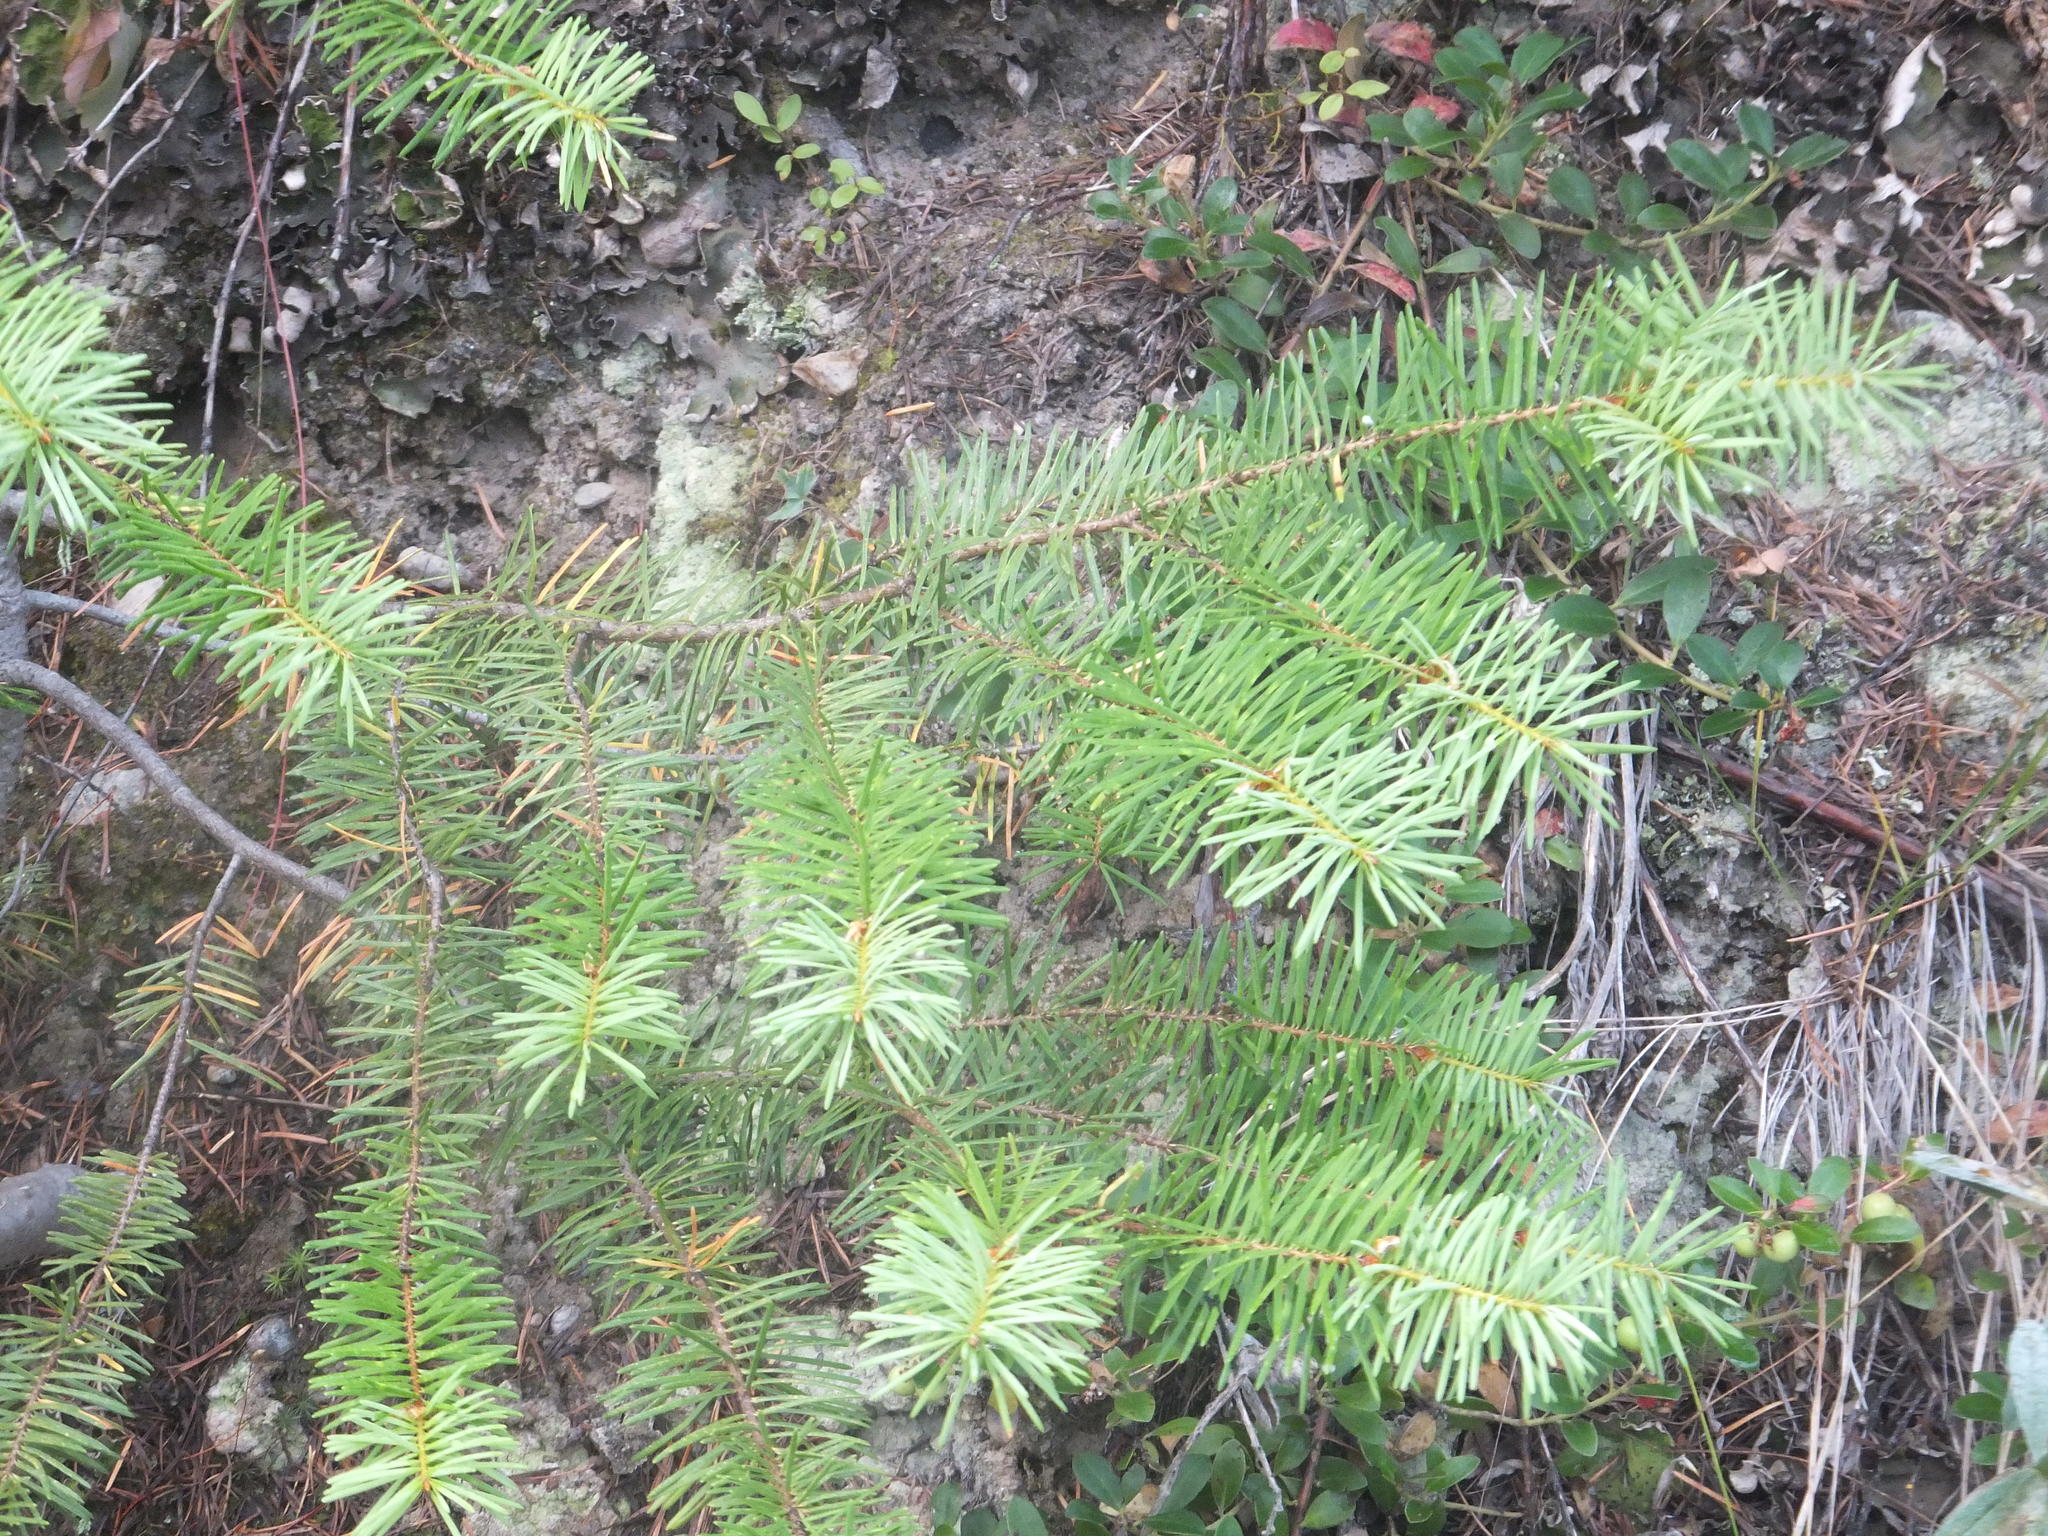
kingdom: Plantae
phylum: Tracheophyta
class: Pinopsida
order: Pinales
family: Pinaceae
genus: Pseudotsuga
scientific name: Pseudotsuga menziesii
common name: Douglas fir
